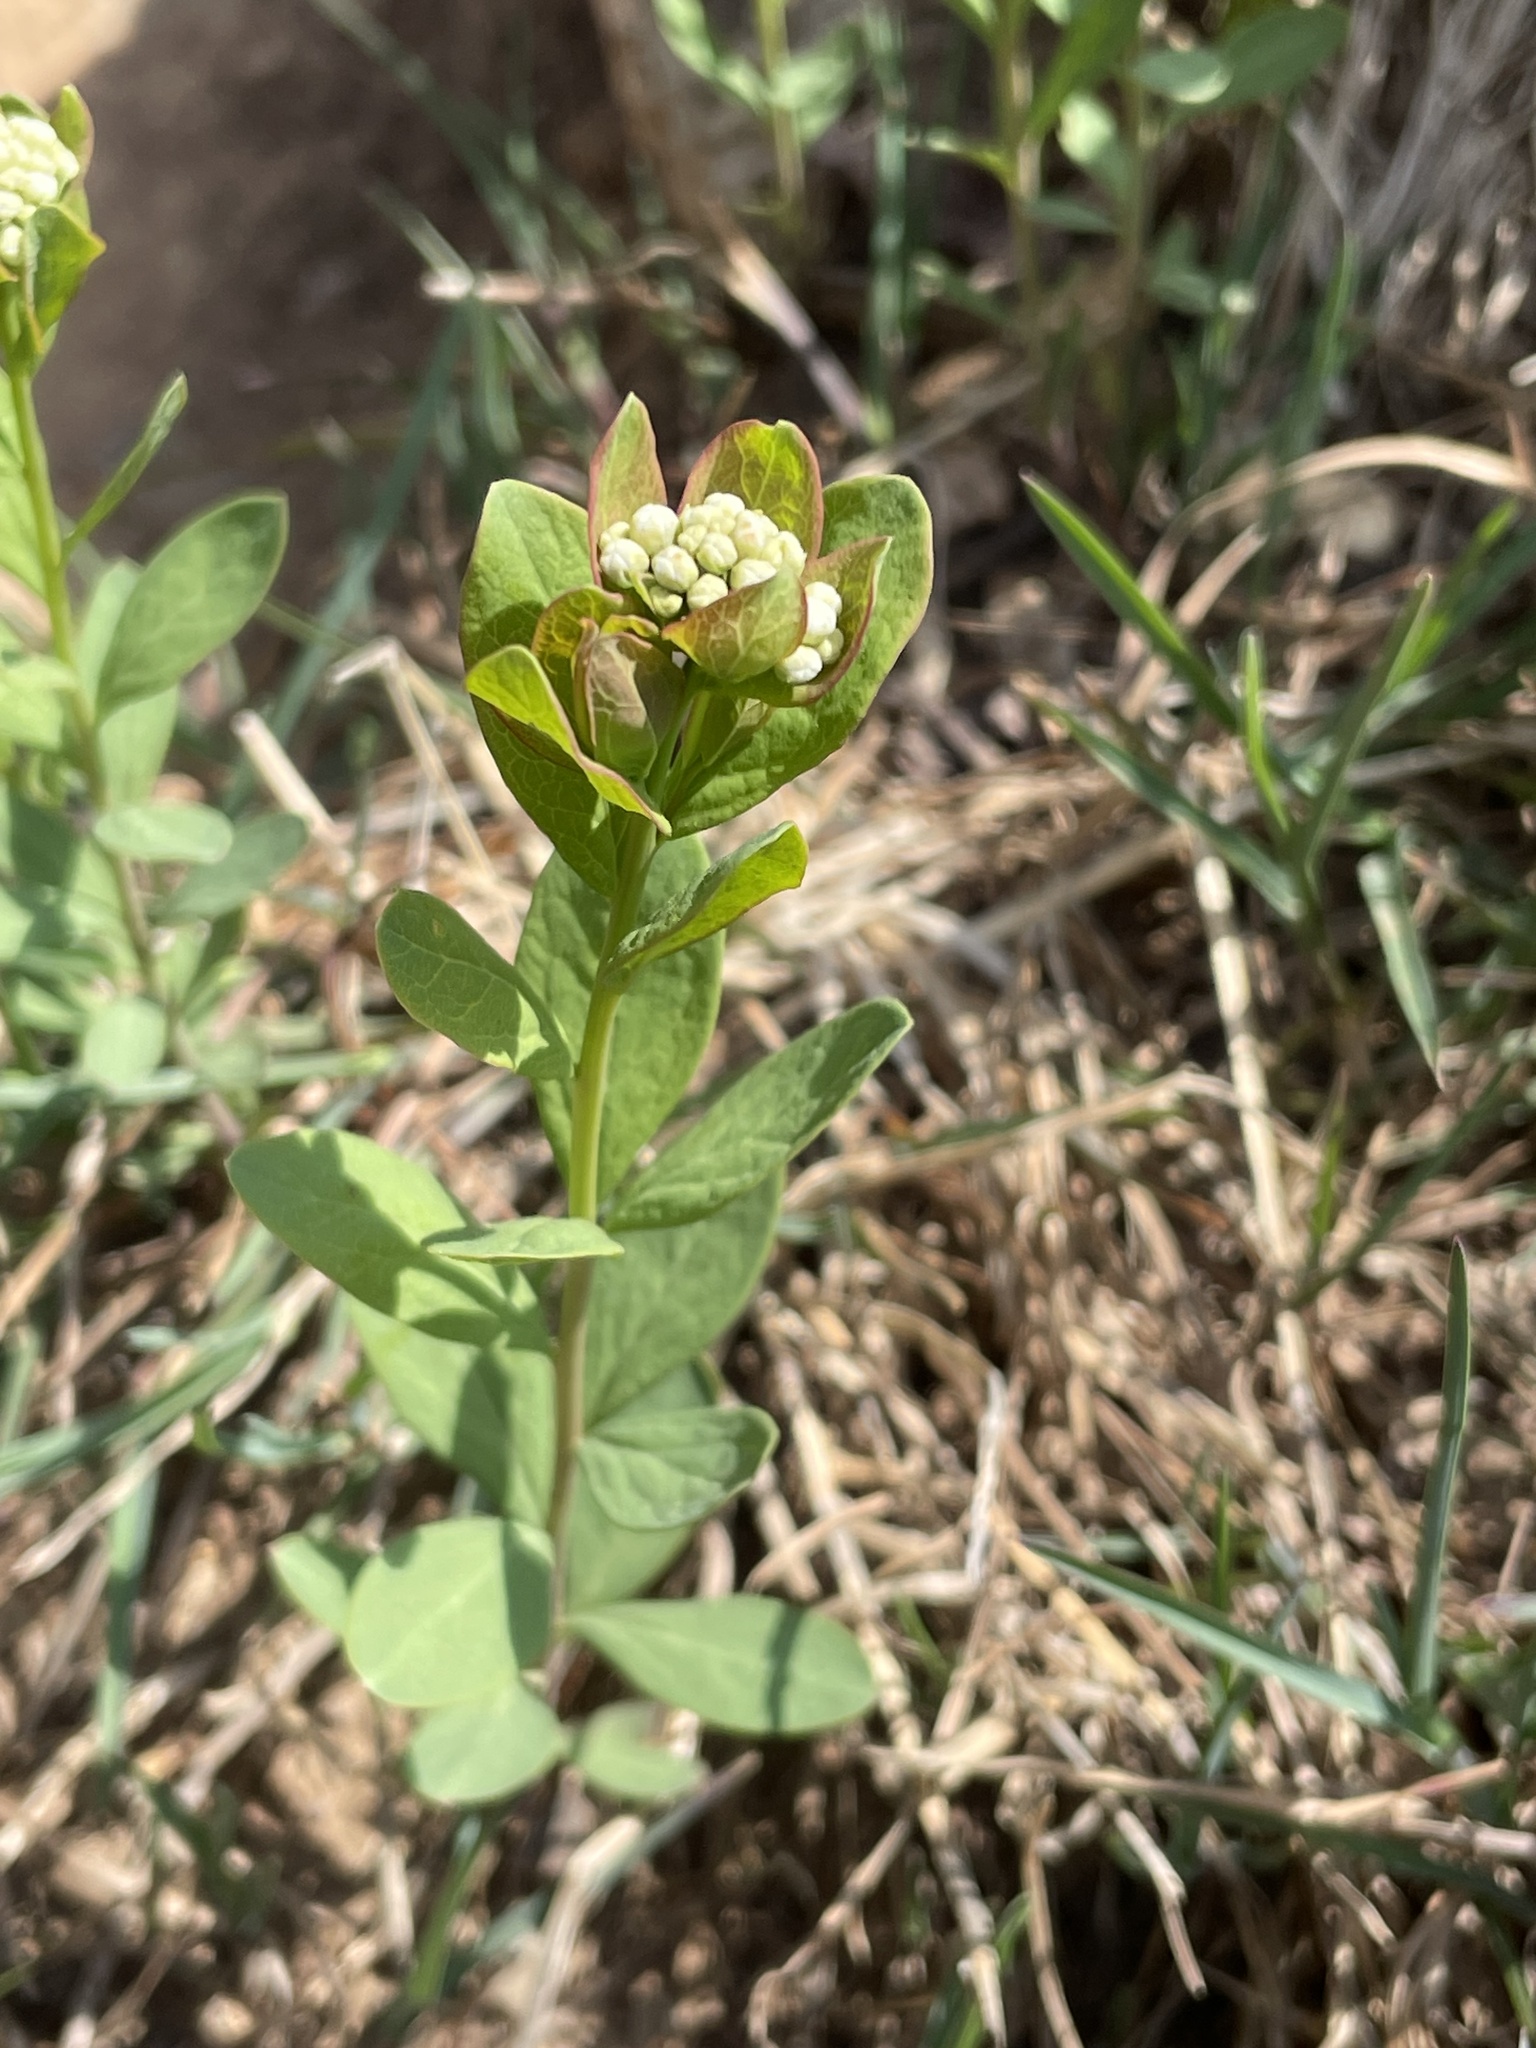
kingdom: Plantae
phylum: Tracheophyta
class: Magnoliopsida
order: Santalales
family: Comandraceae
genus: Comandra
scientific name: Comandra umbellata
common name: Bastard toadflax
